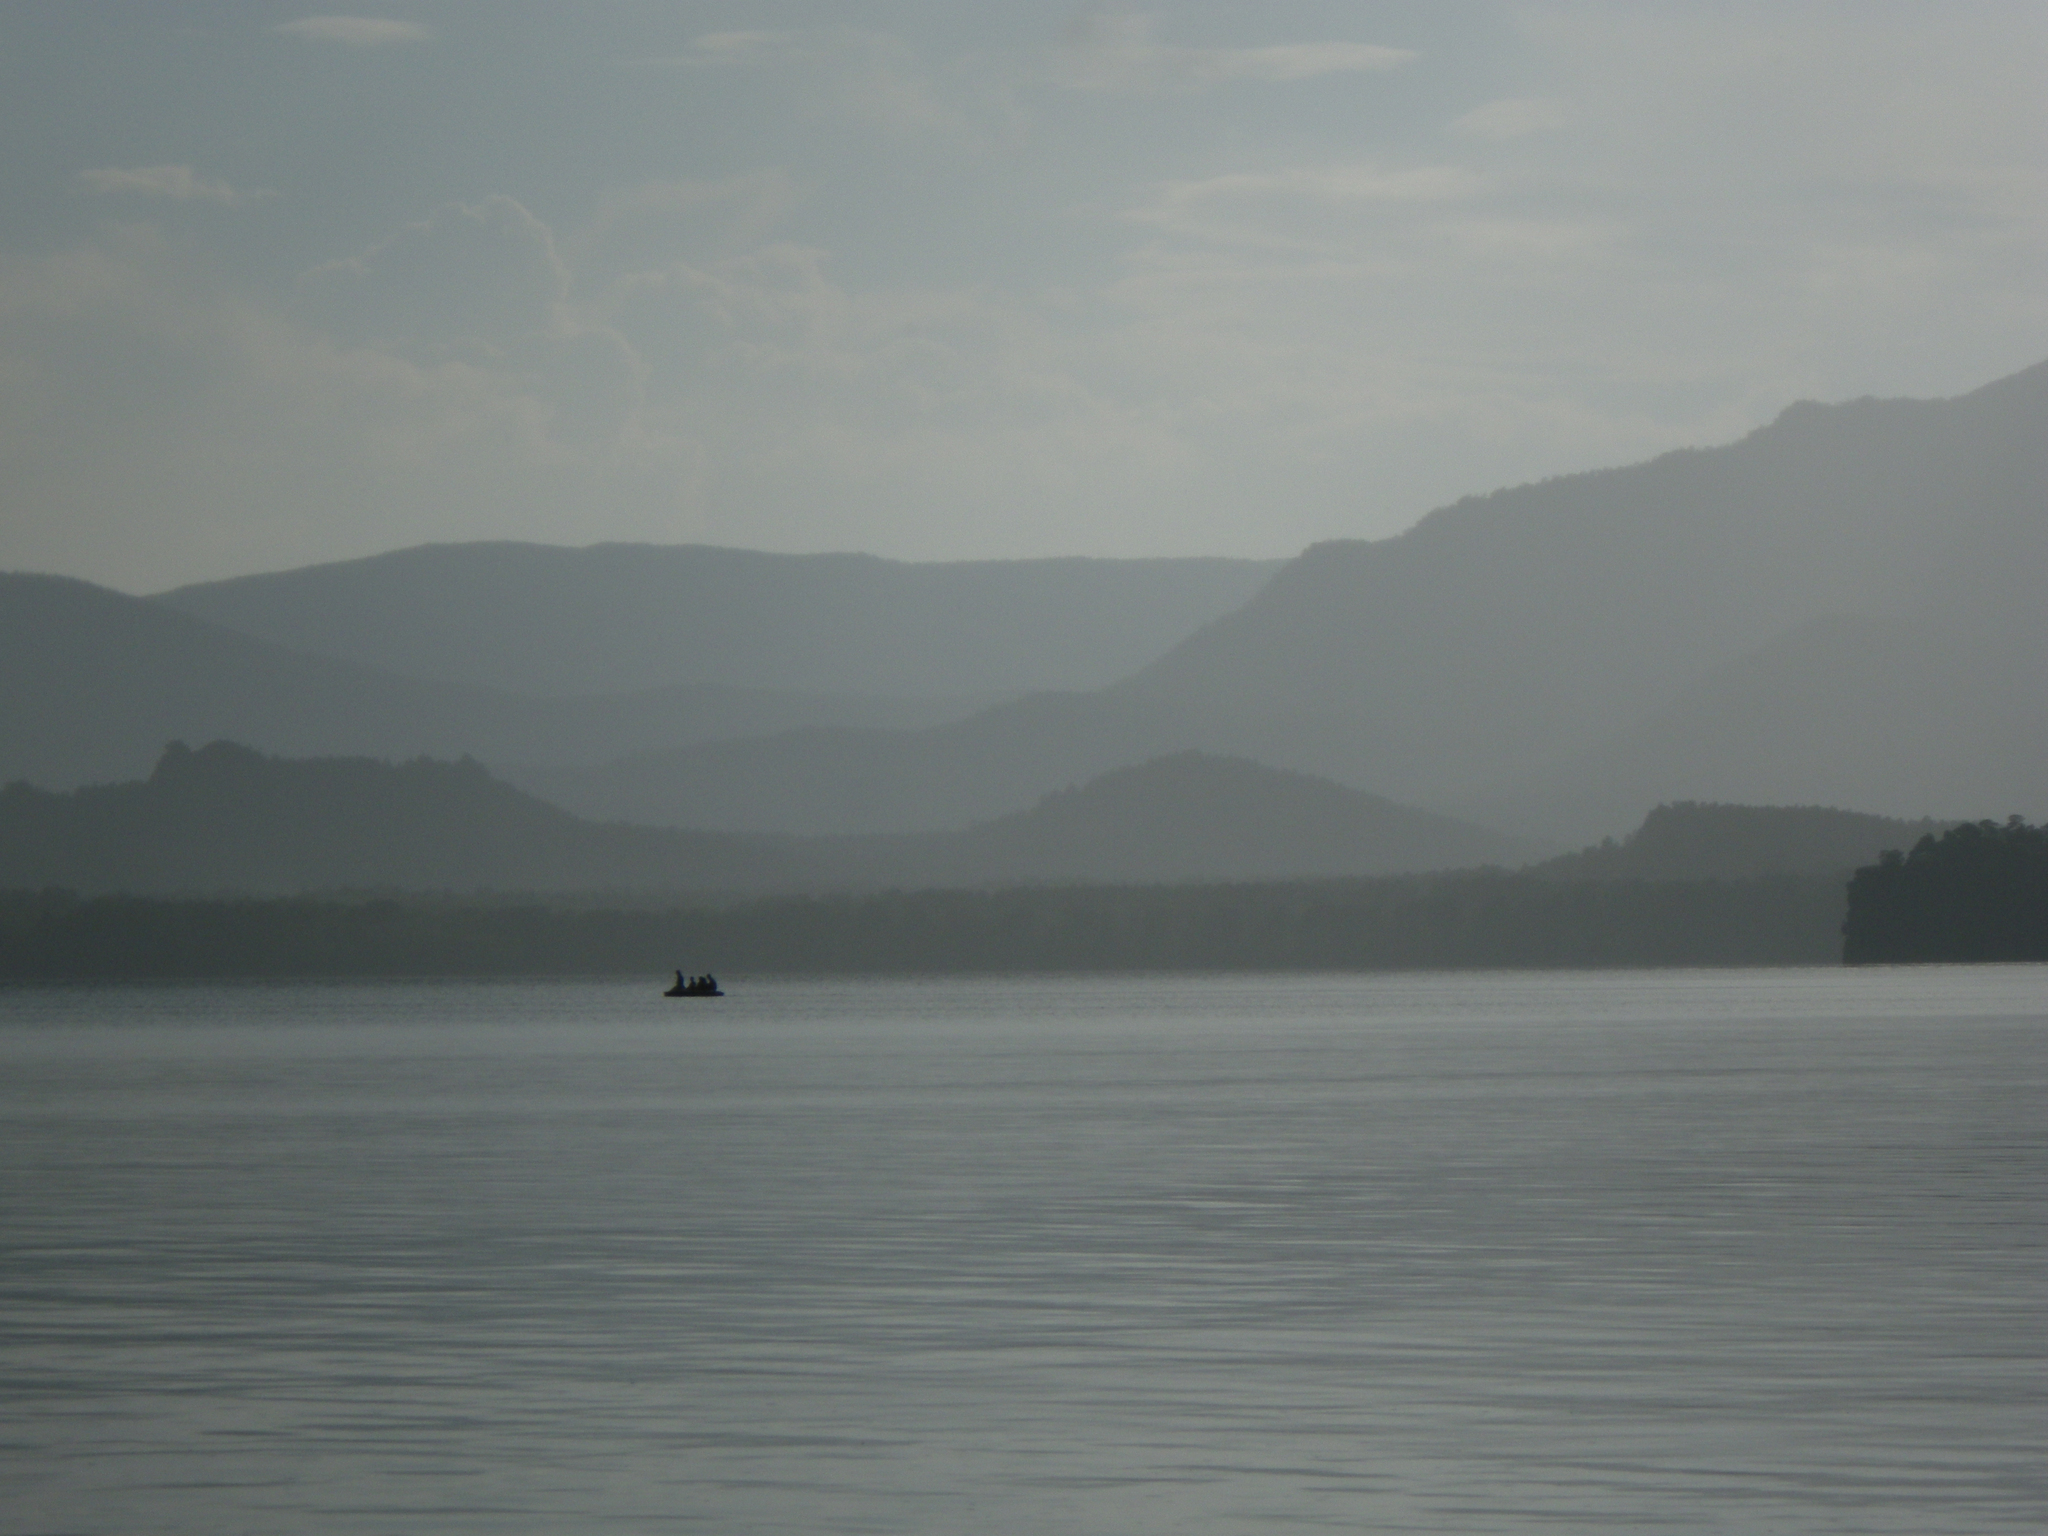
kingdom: Plantae
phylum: Tracheophyta
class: Pinopsida
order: Pinales
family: Pinaceae
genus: Pinus
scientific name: Pinus sylvestris
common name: Scots pine
